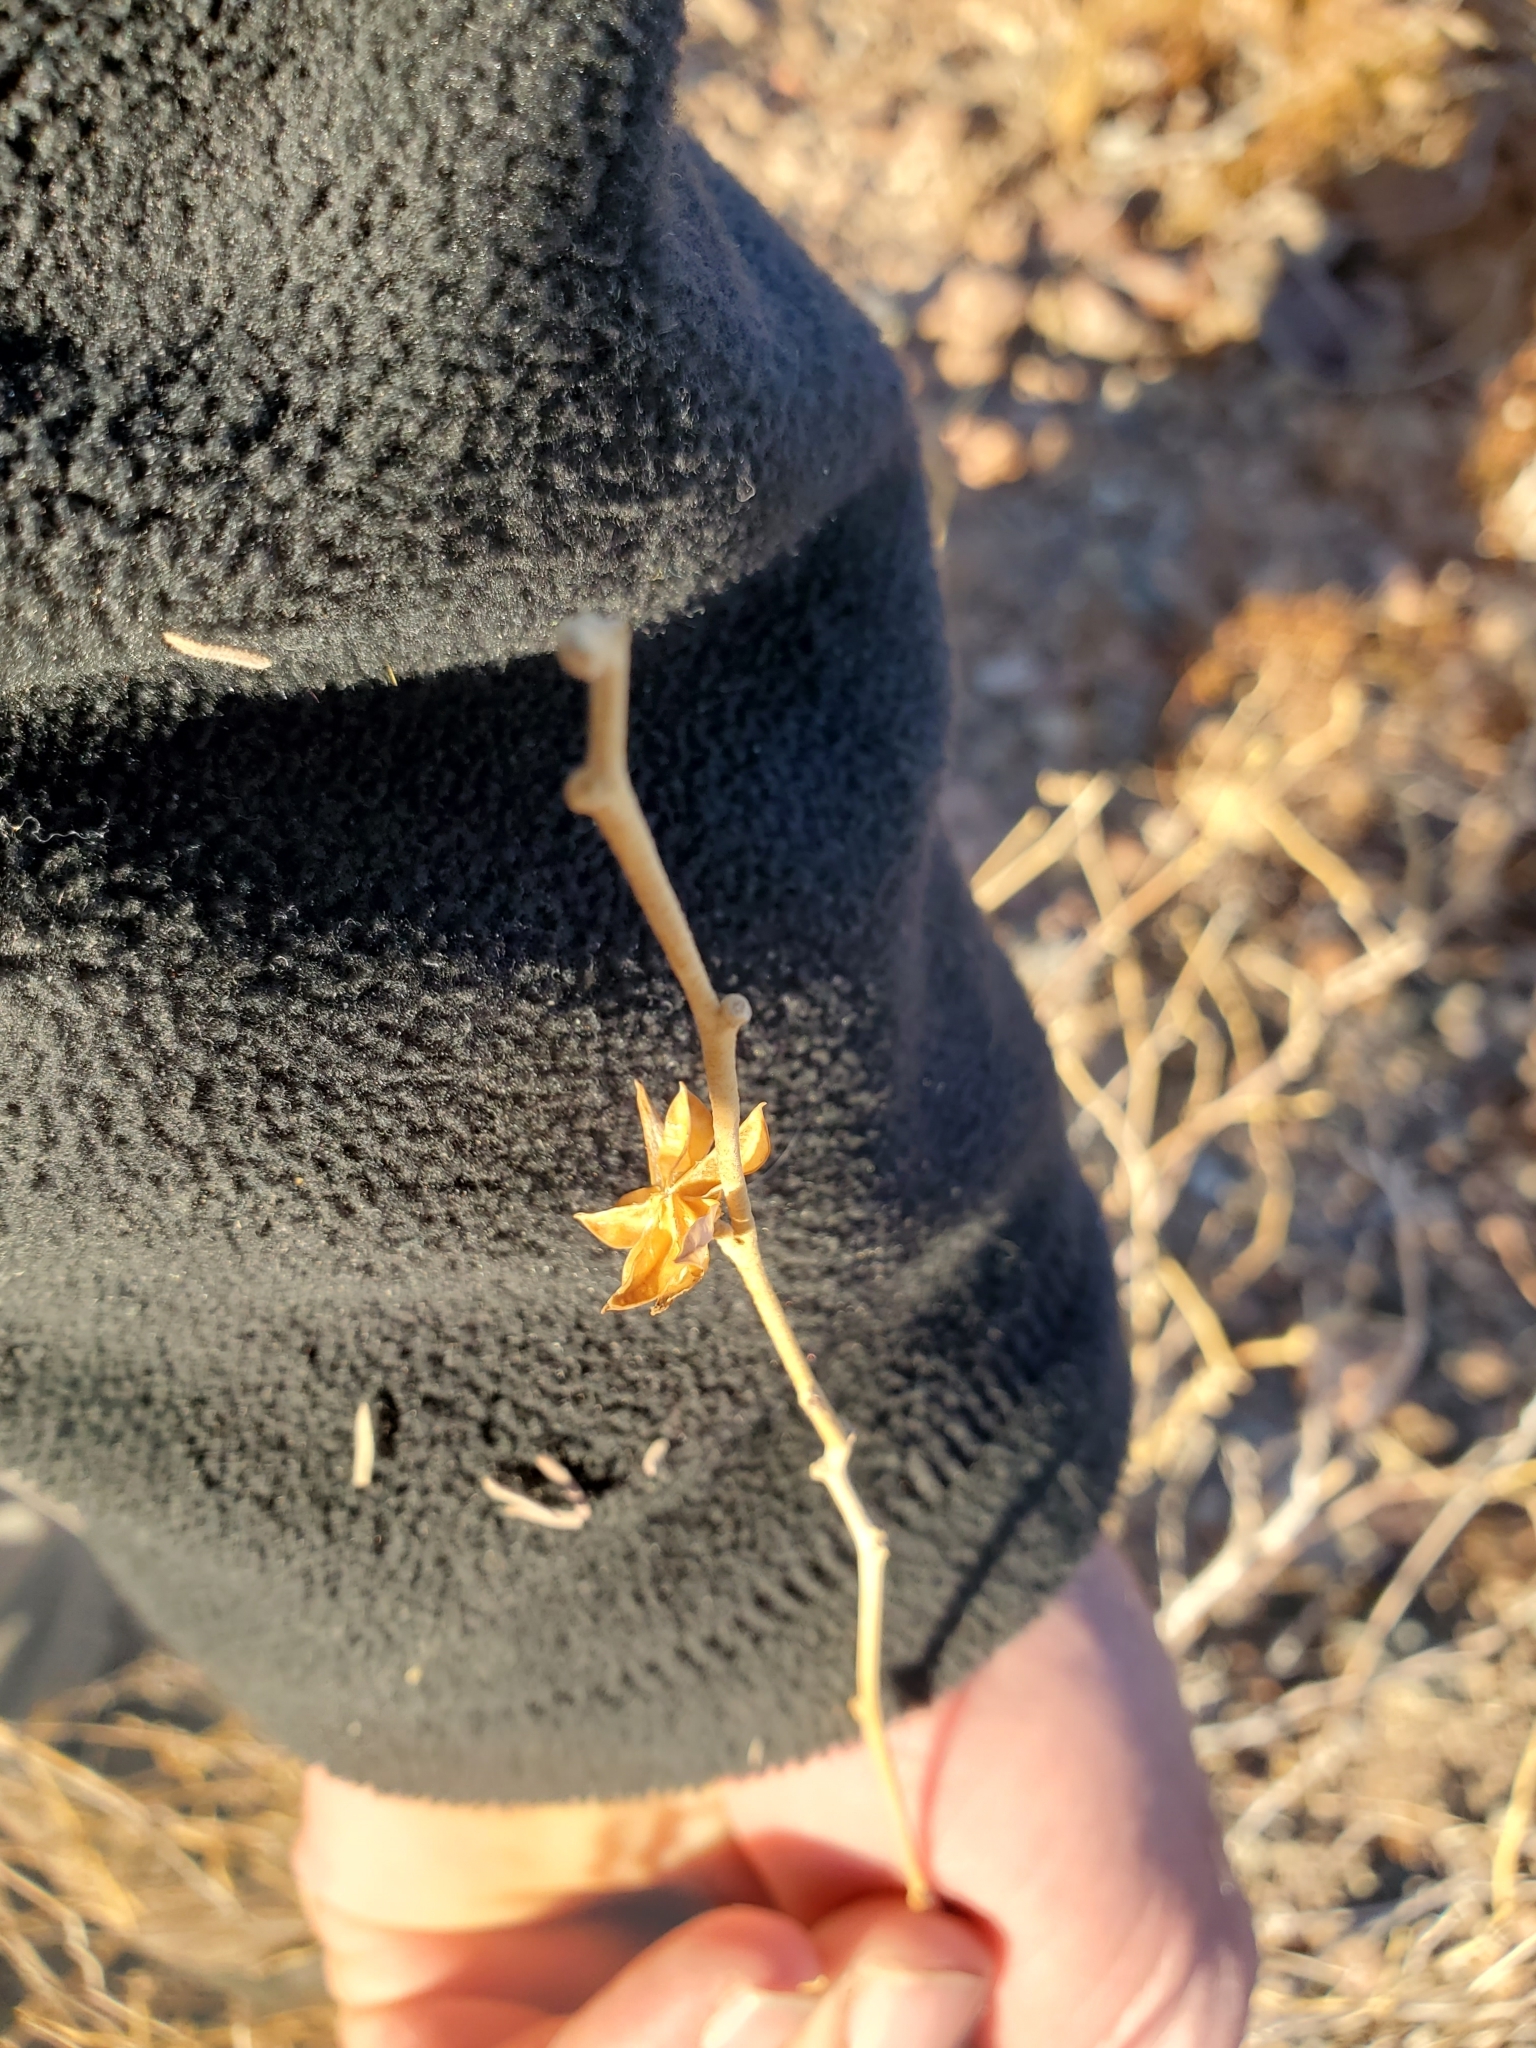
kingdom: Plantae
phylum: Tracheophyta
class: Magnoliopsida
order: Malvales
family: Malvaceae
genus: Hibiscus
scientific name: Hibiscus denudatus
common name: Paleface
